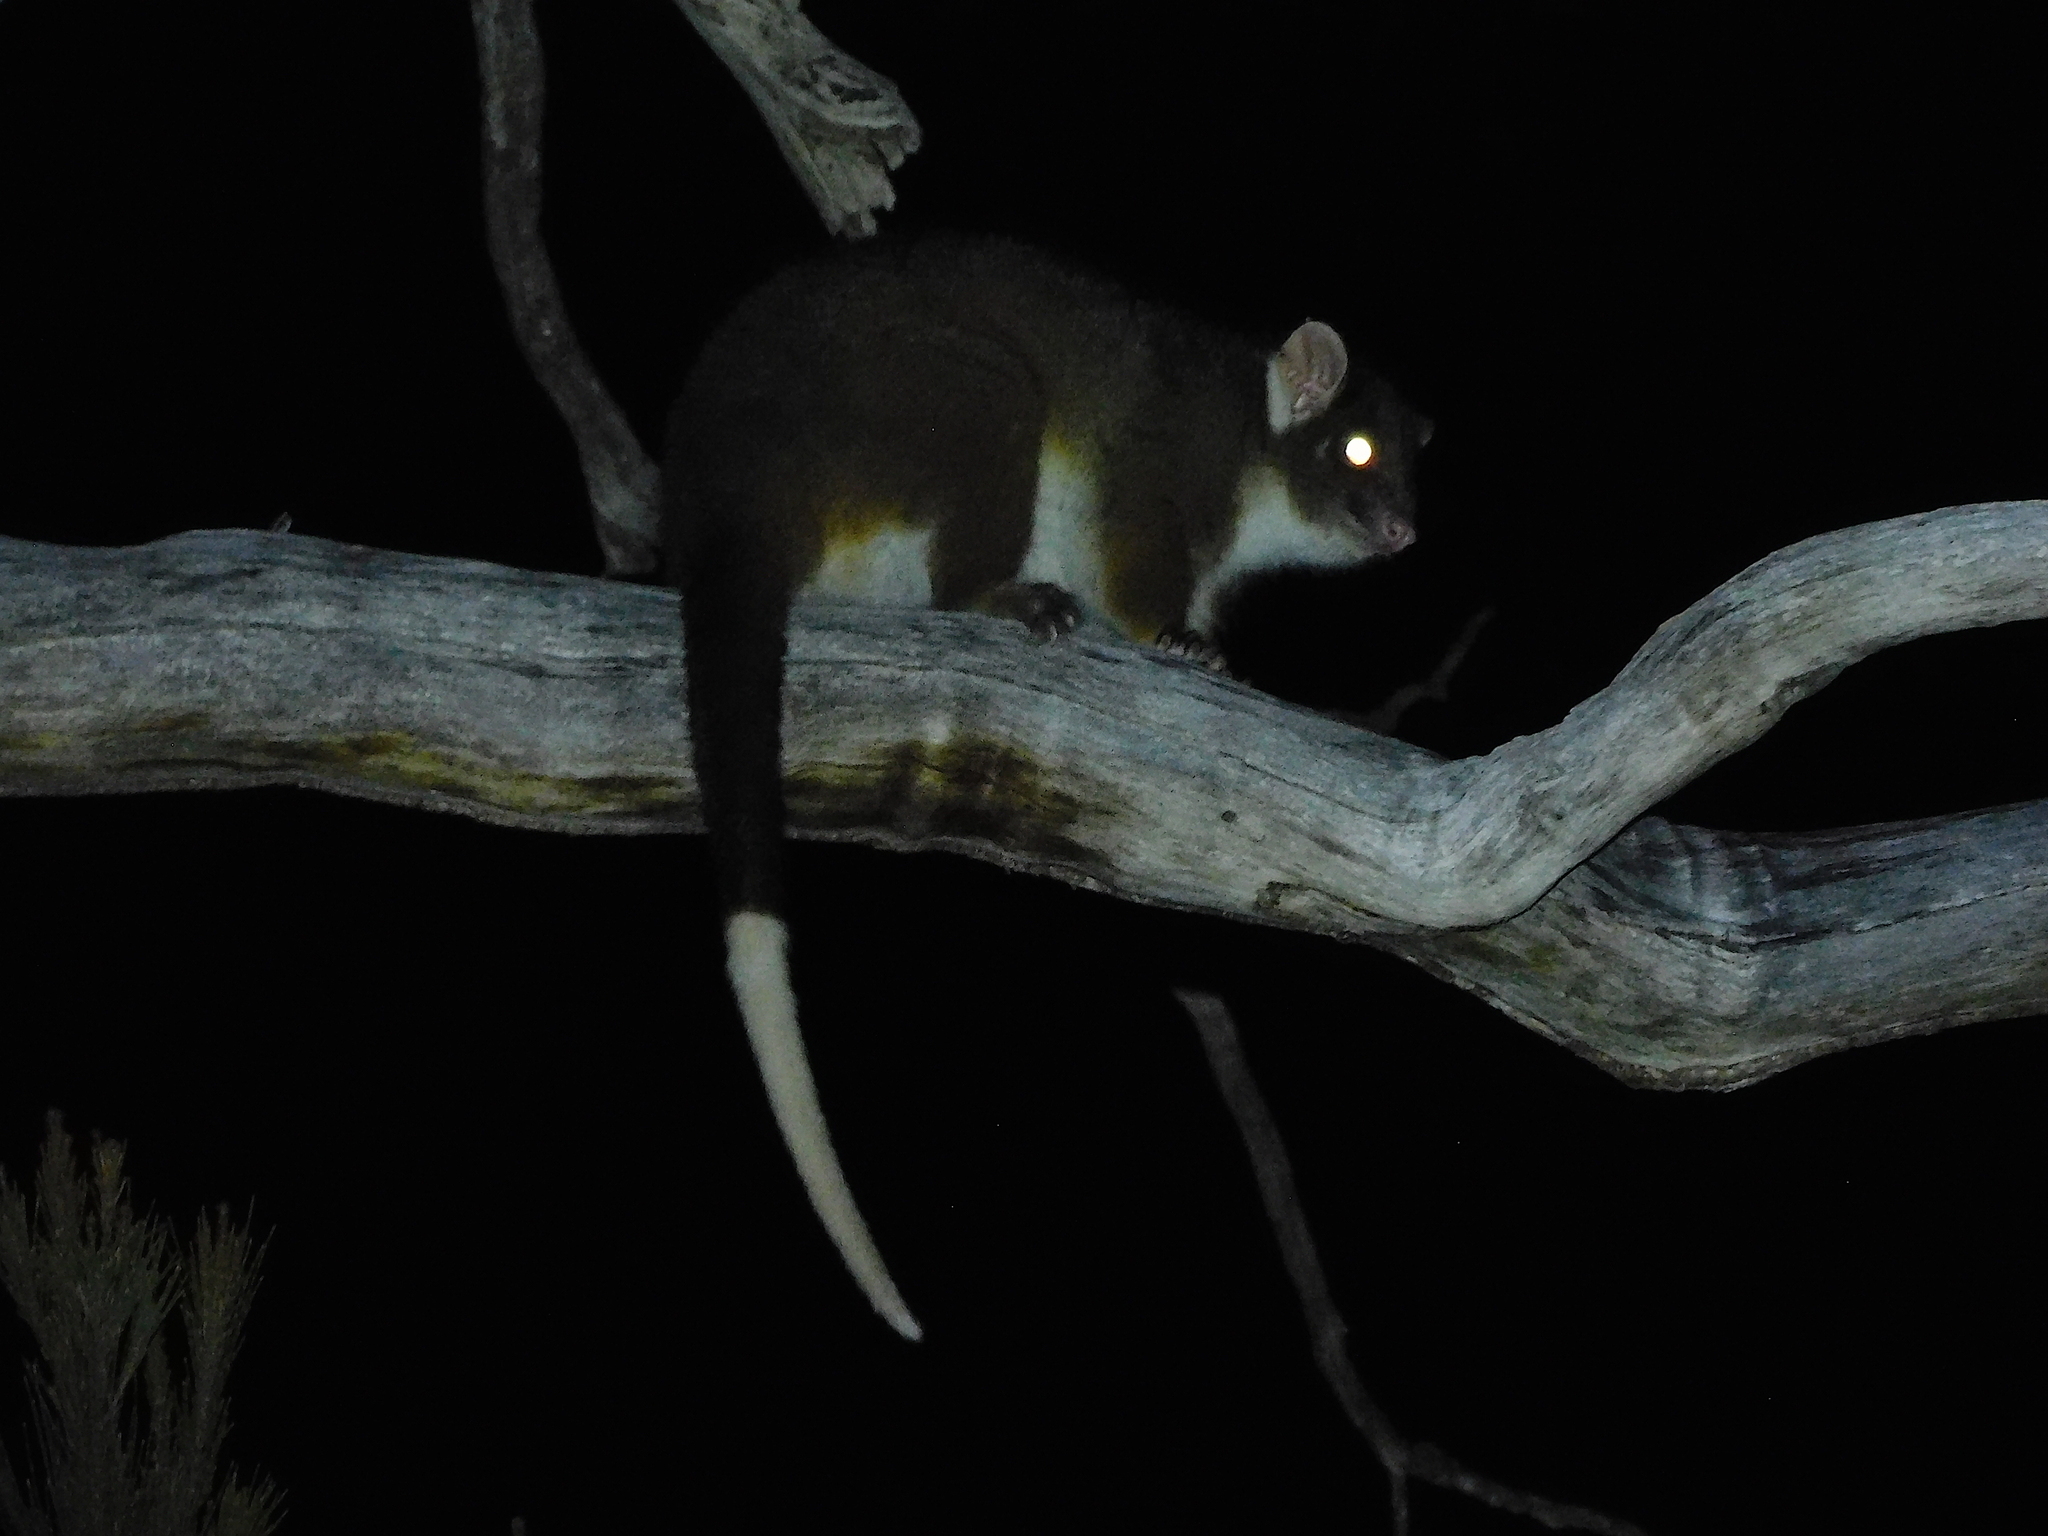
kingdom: Animalia
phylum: Chordata
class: Mammalia
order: Diprotodontia
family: Pseudocheiridae
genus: Pseudocheirus
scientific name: Pseudocheirus peregrinus
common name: Common ringtail possum
